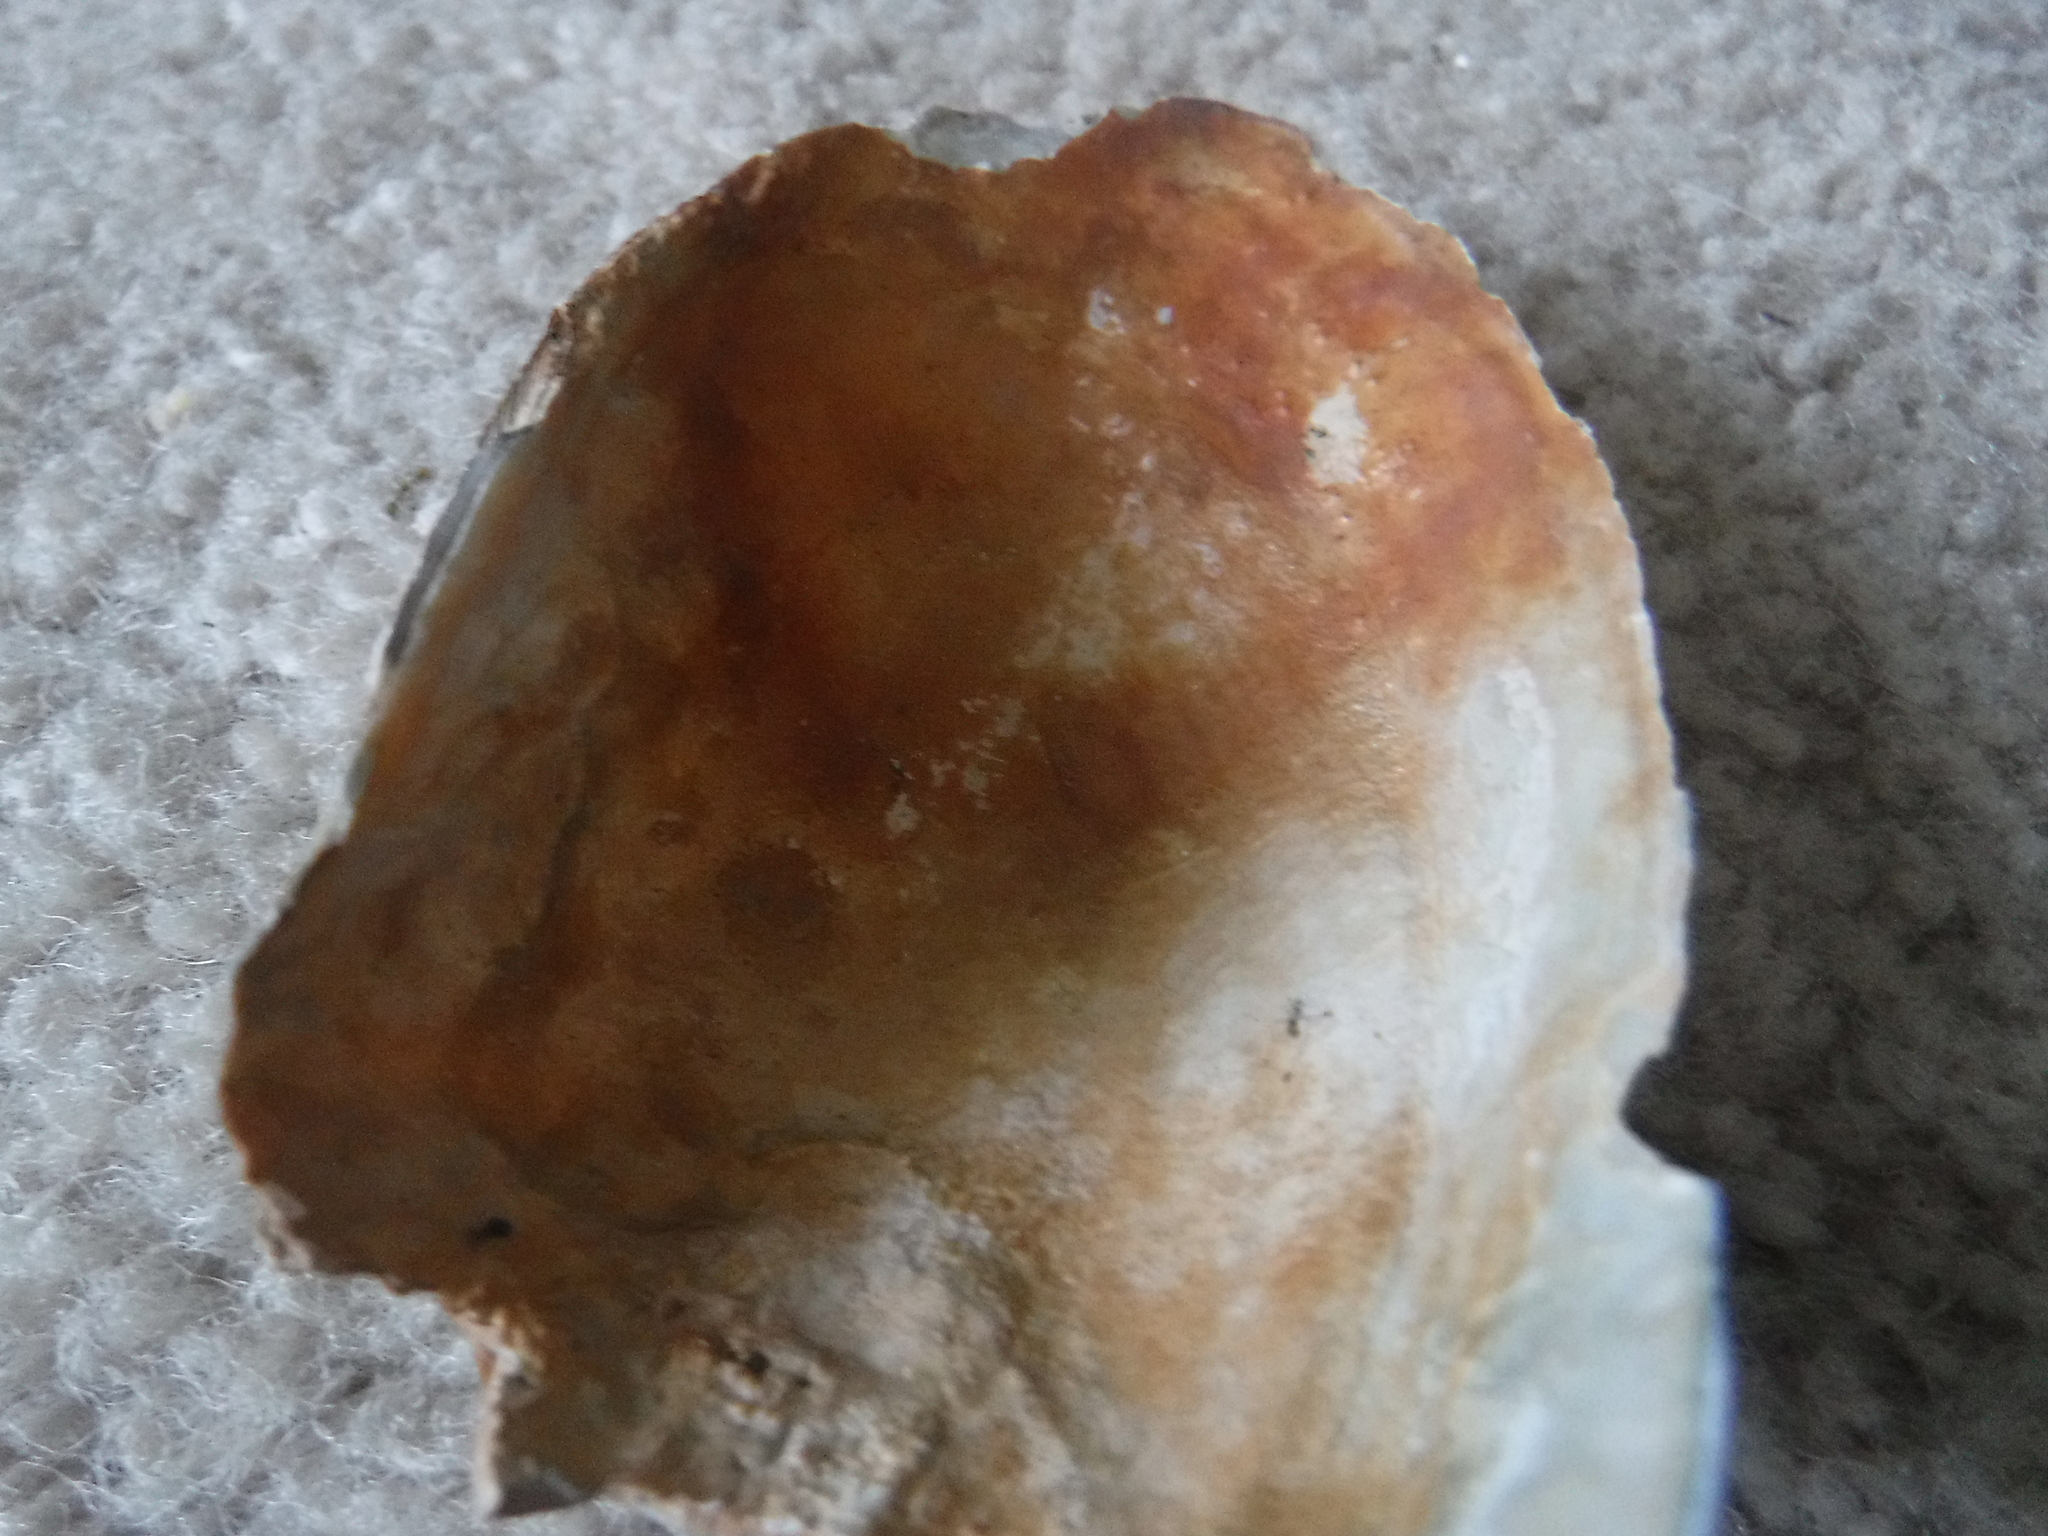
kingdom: Animalia
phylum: Mollusca
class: Bivalvia
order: Unionida
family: Unionidae
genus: Lampsilis
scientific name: Lampsilis siliquoidea
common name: Fatmucket
